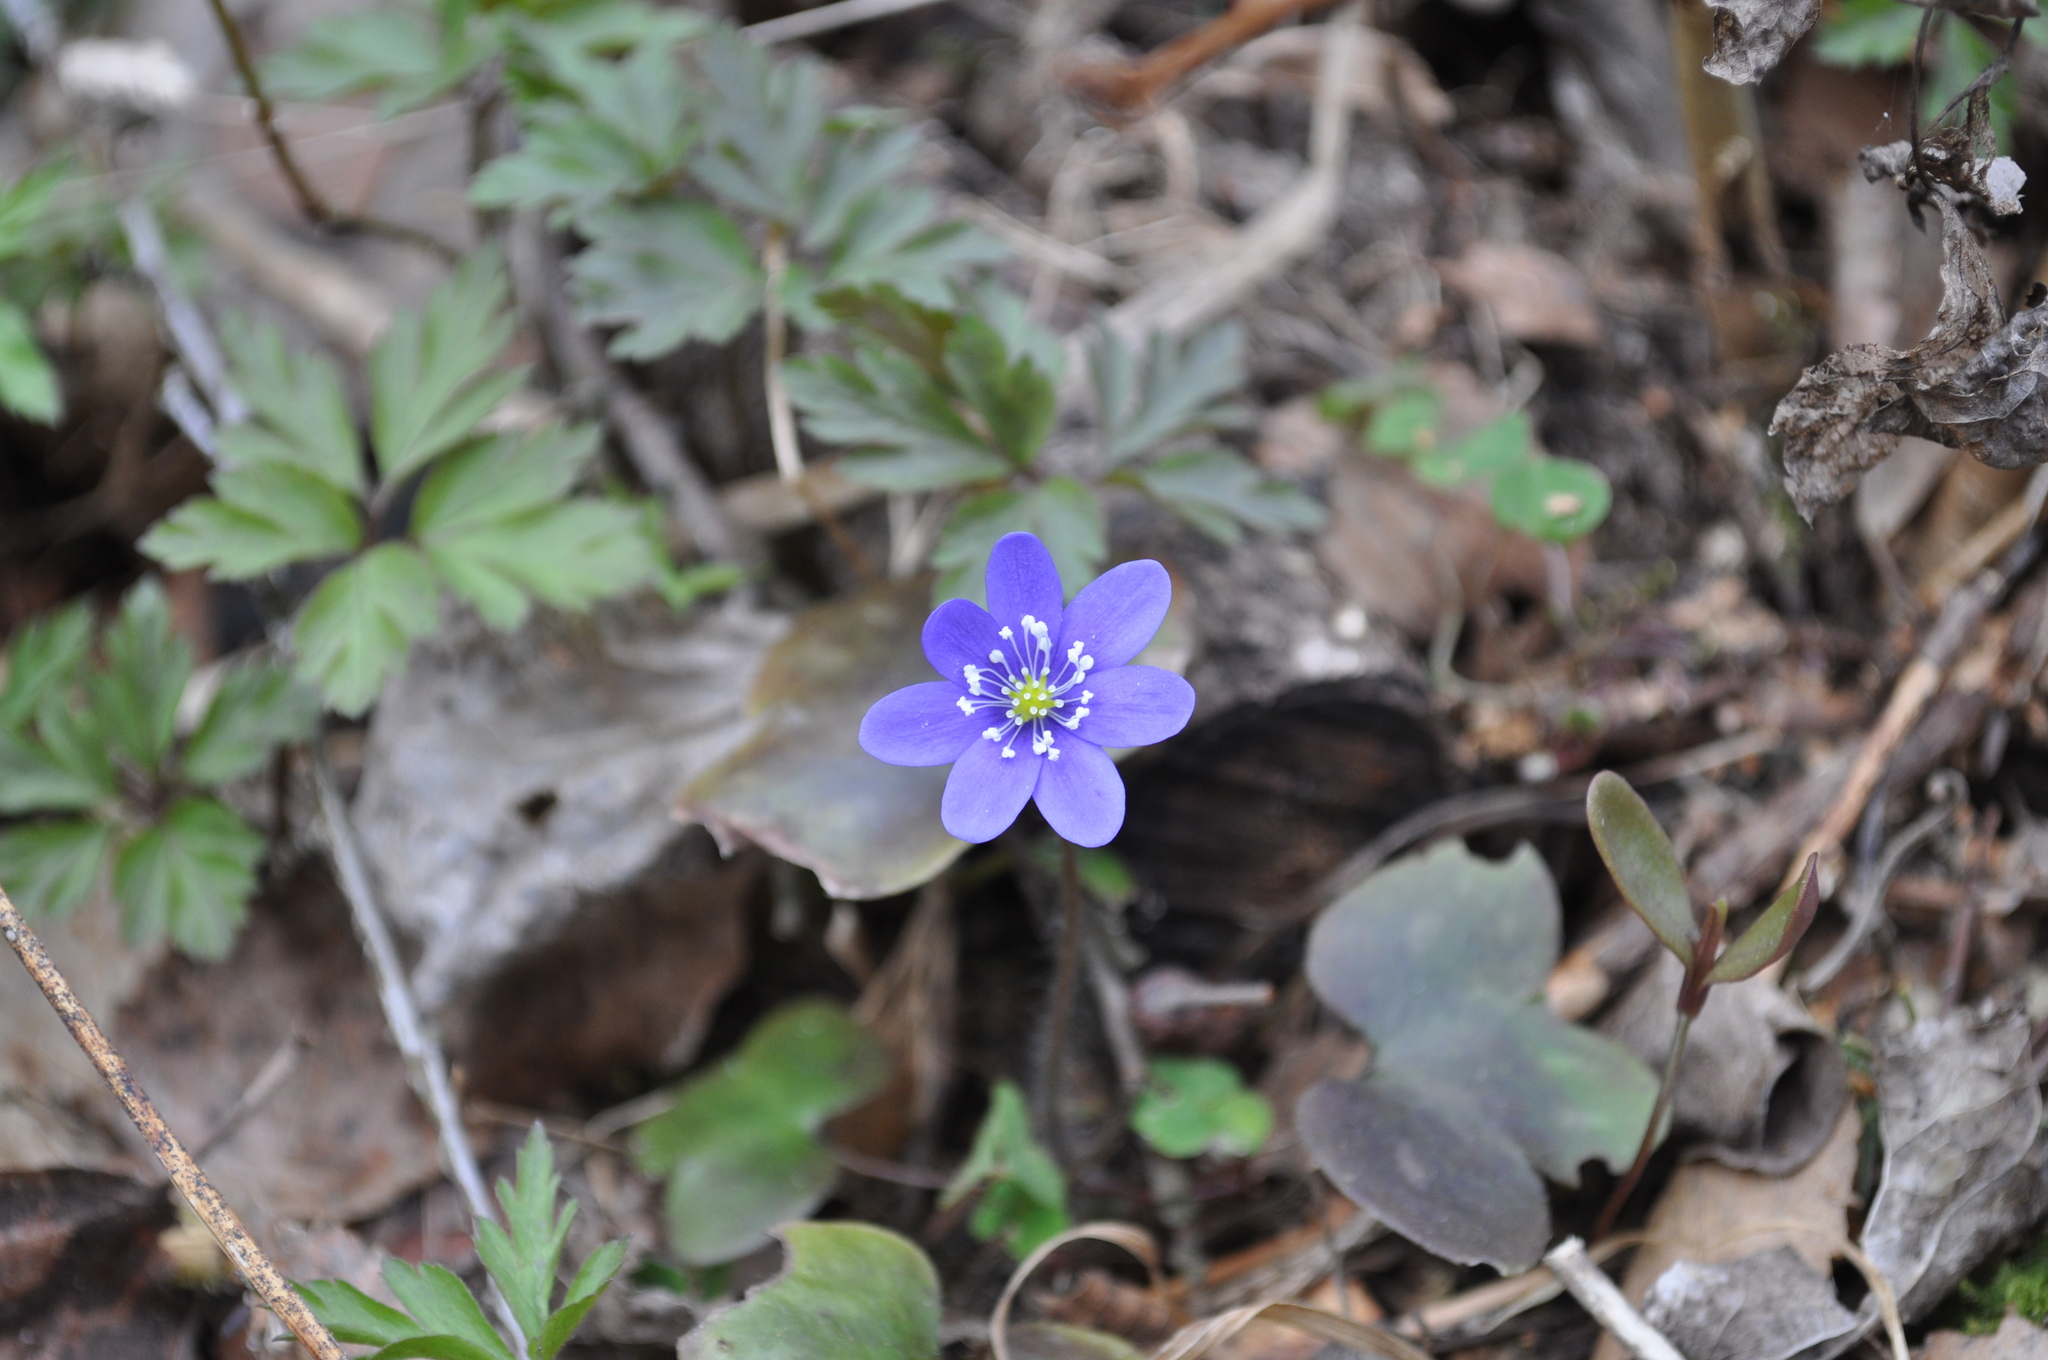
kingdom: Plantae
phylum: Tracheophyta
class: Magnoliopsida
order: Ranunculales
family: Ranunculaceae
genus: Hepatica
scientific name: Hepatica nobilis
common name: Liverleaf
